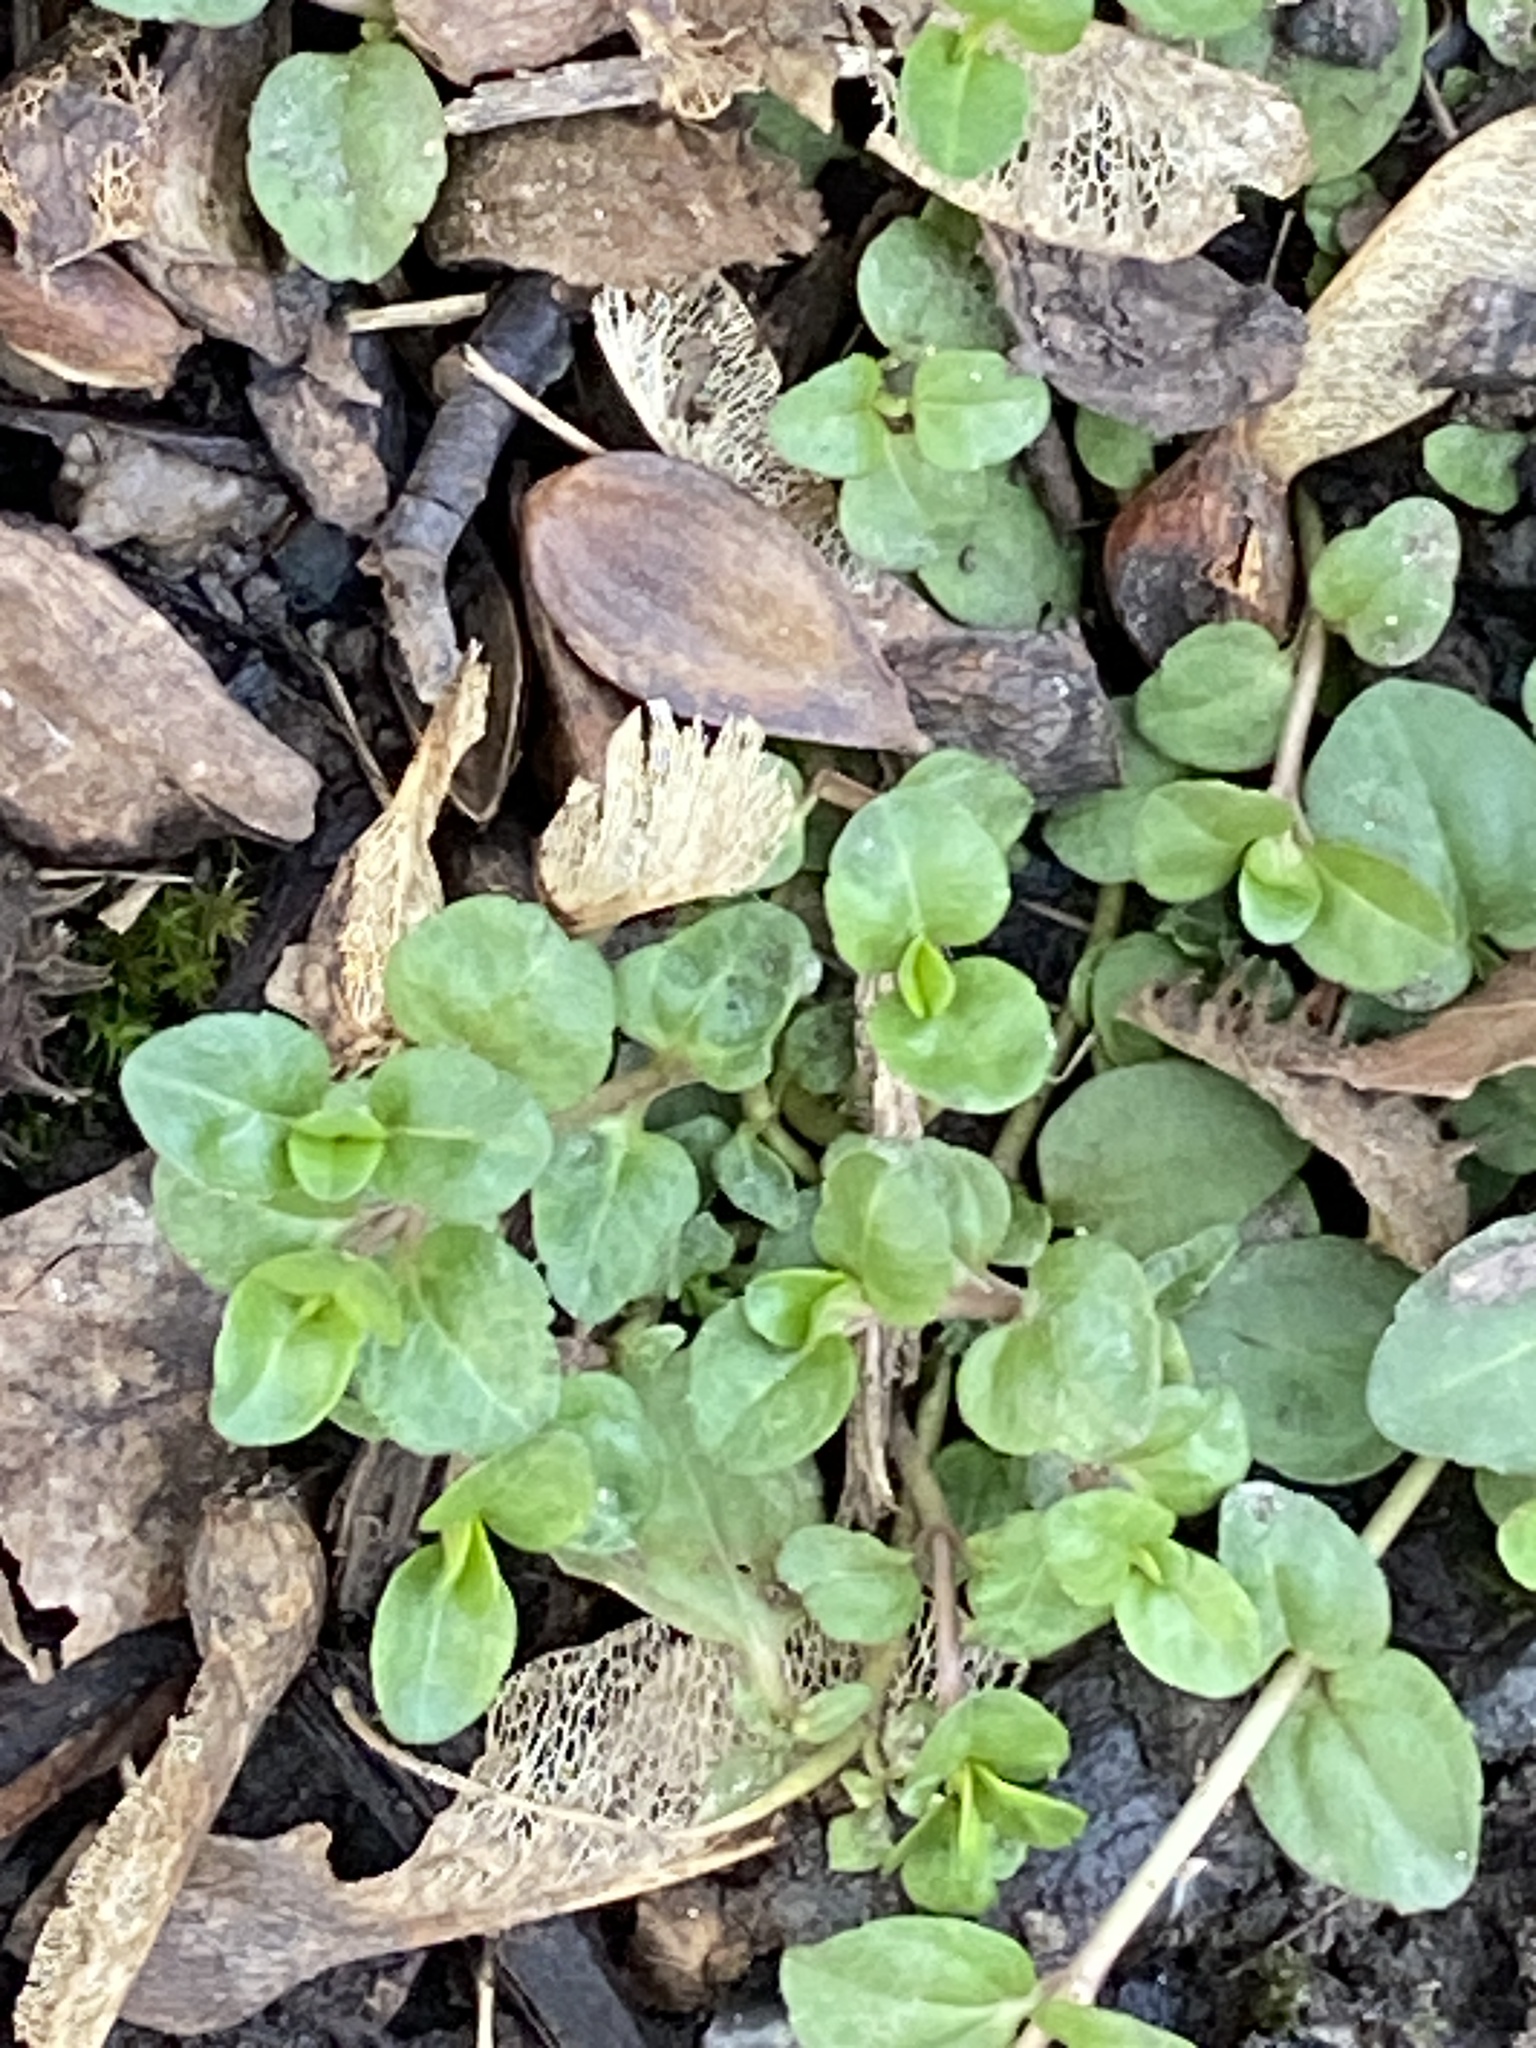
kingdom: Plantae
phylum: Tracheophyta
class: Magnoliopsida
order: Lamiales
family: Plantaginaceae
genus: Veronica
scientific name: Veronica serpyllifolia
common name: Thyme-leaved speedwell
